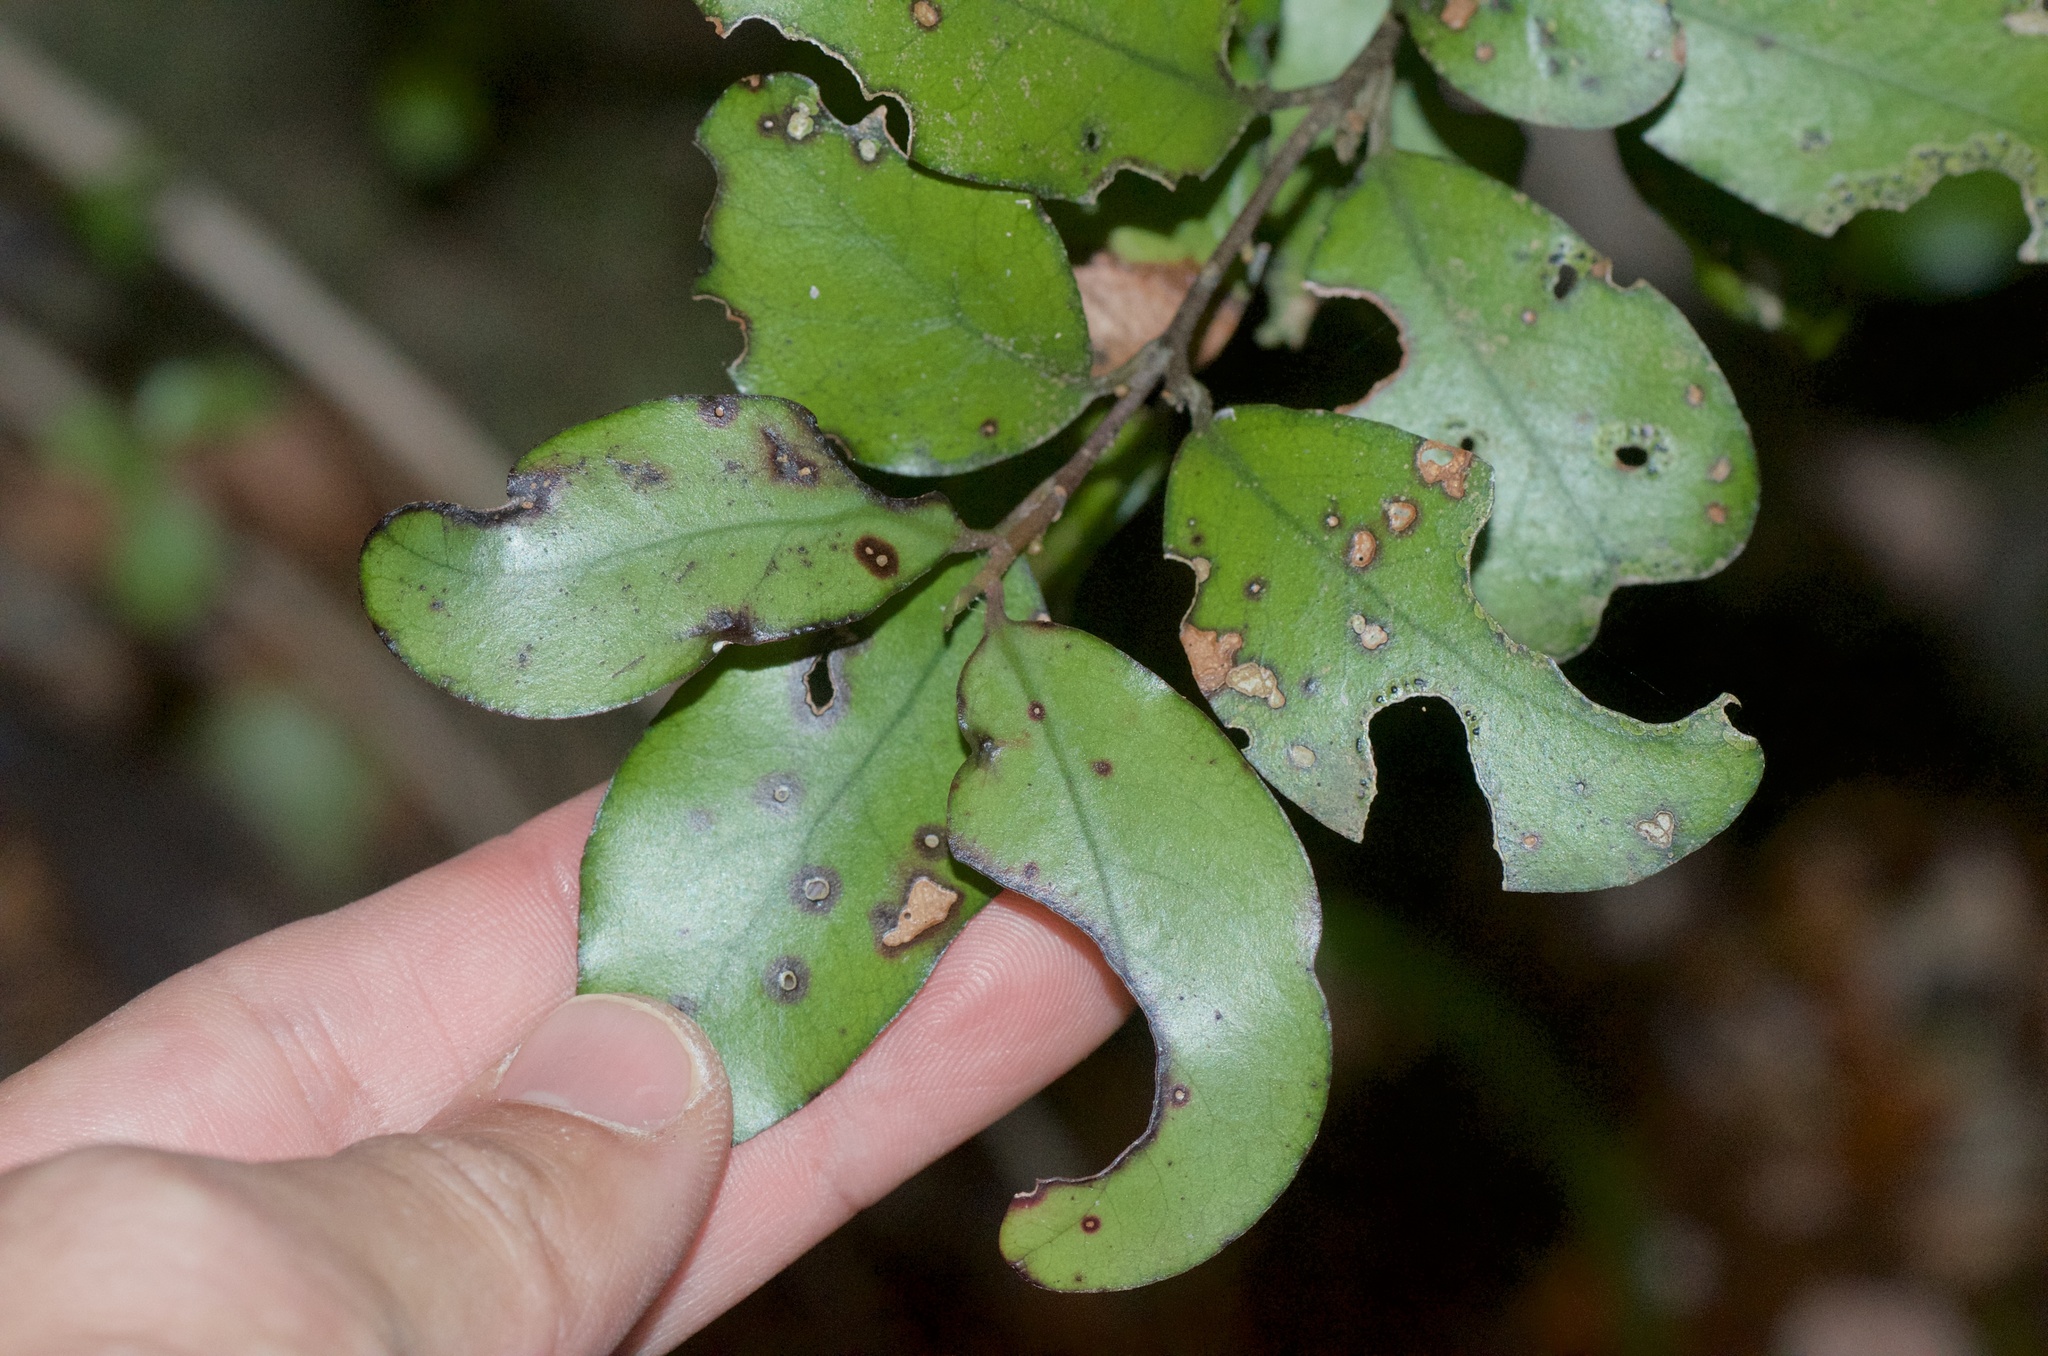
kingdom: Plantae
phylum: Tracheophyta
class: Magnoliopsida
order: Canellales
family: Winteraceae
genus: Pseudowintera
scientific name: Pseudowintera colorata
